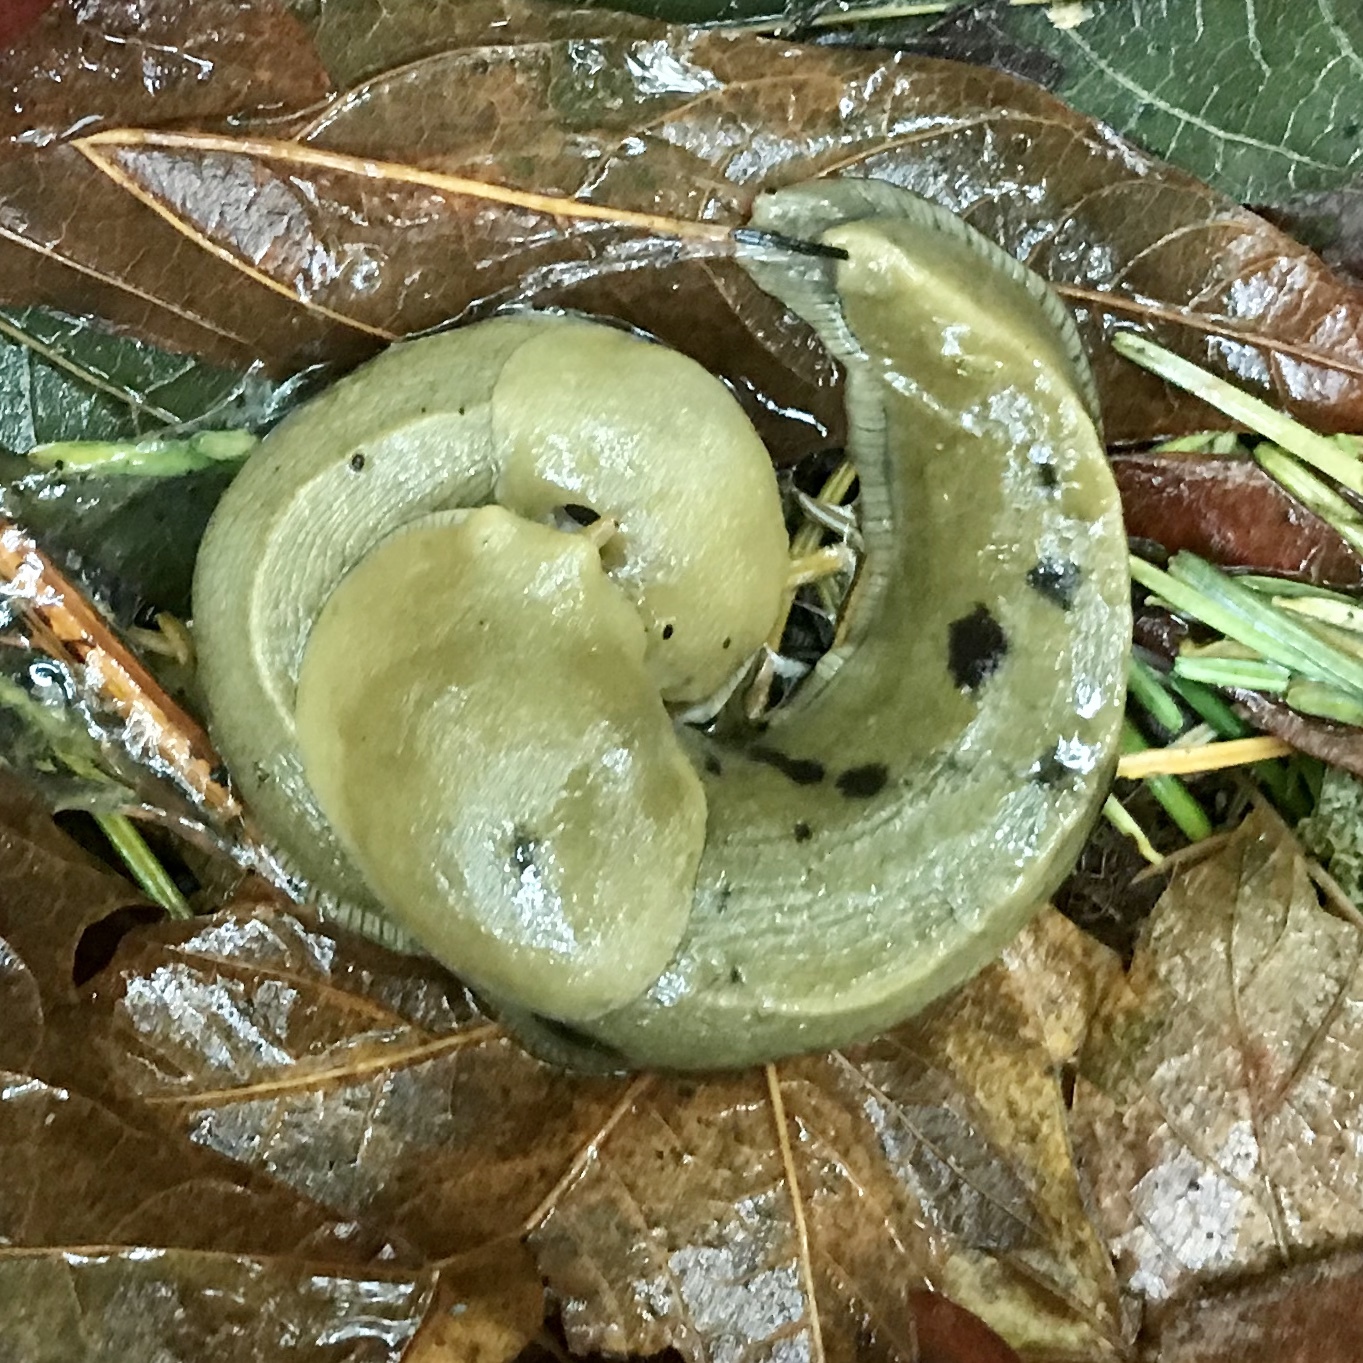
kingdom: Animalia
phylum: Mollusca
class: Gastropoda
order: Stylommatophora
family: Ariolimacidae
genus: Ariolimax
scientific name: Ariolimax columbianus
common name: Pacific banana slug
